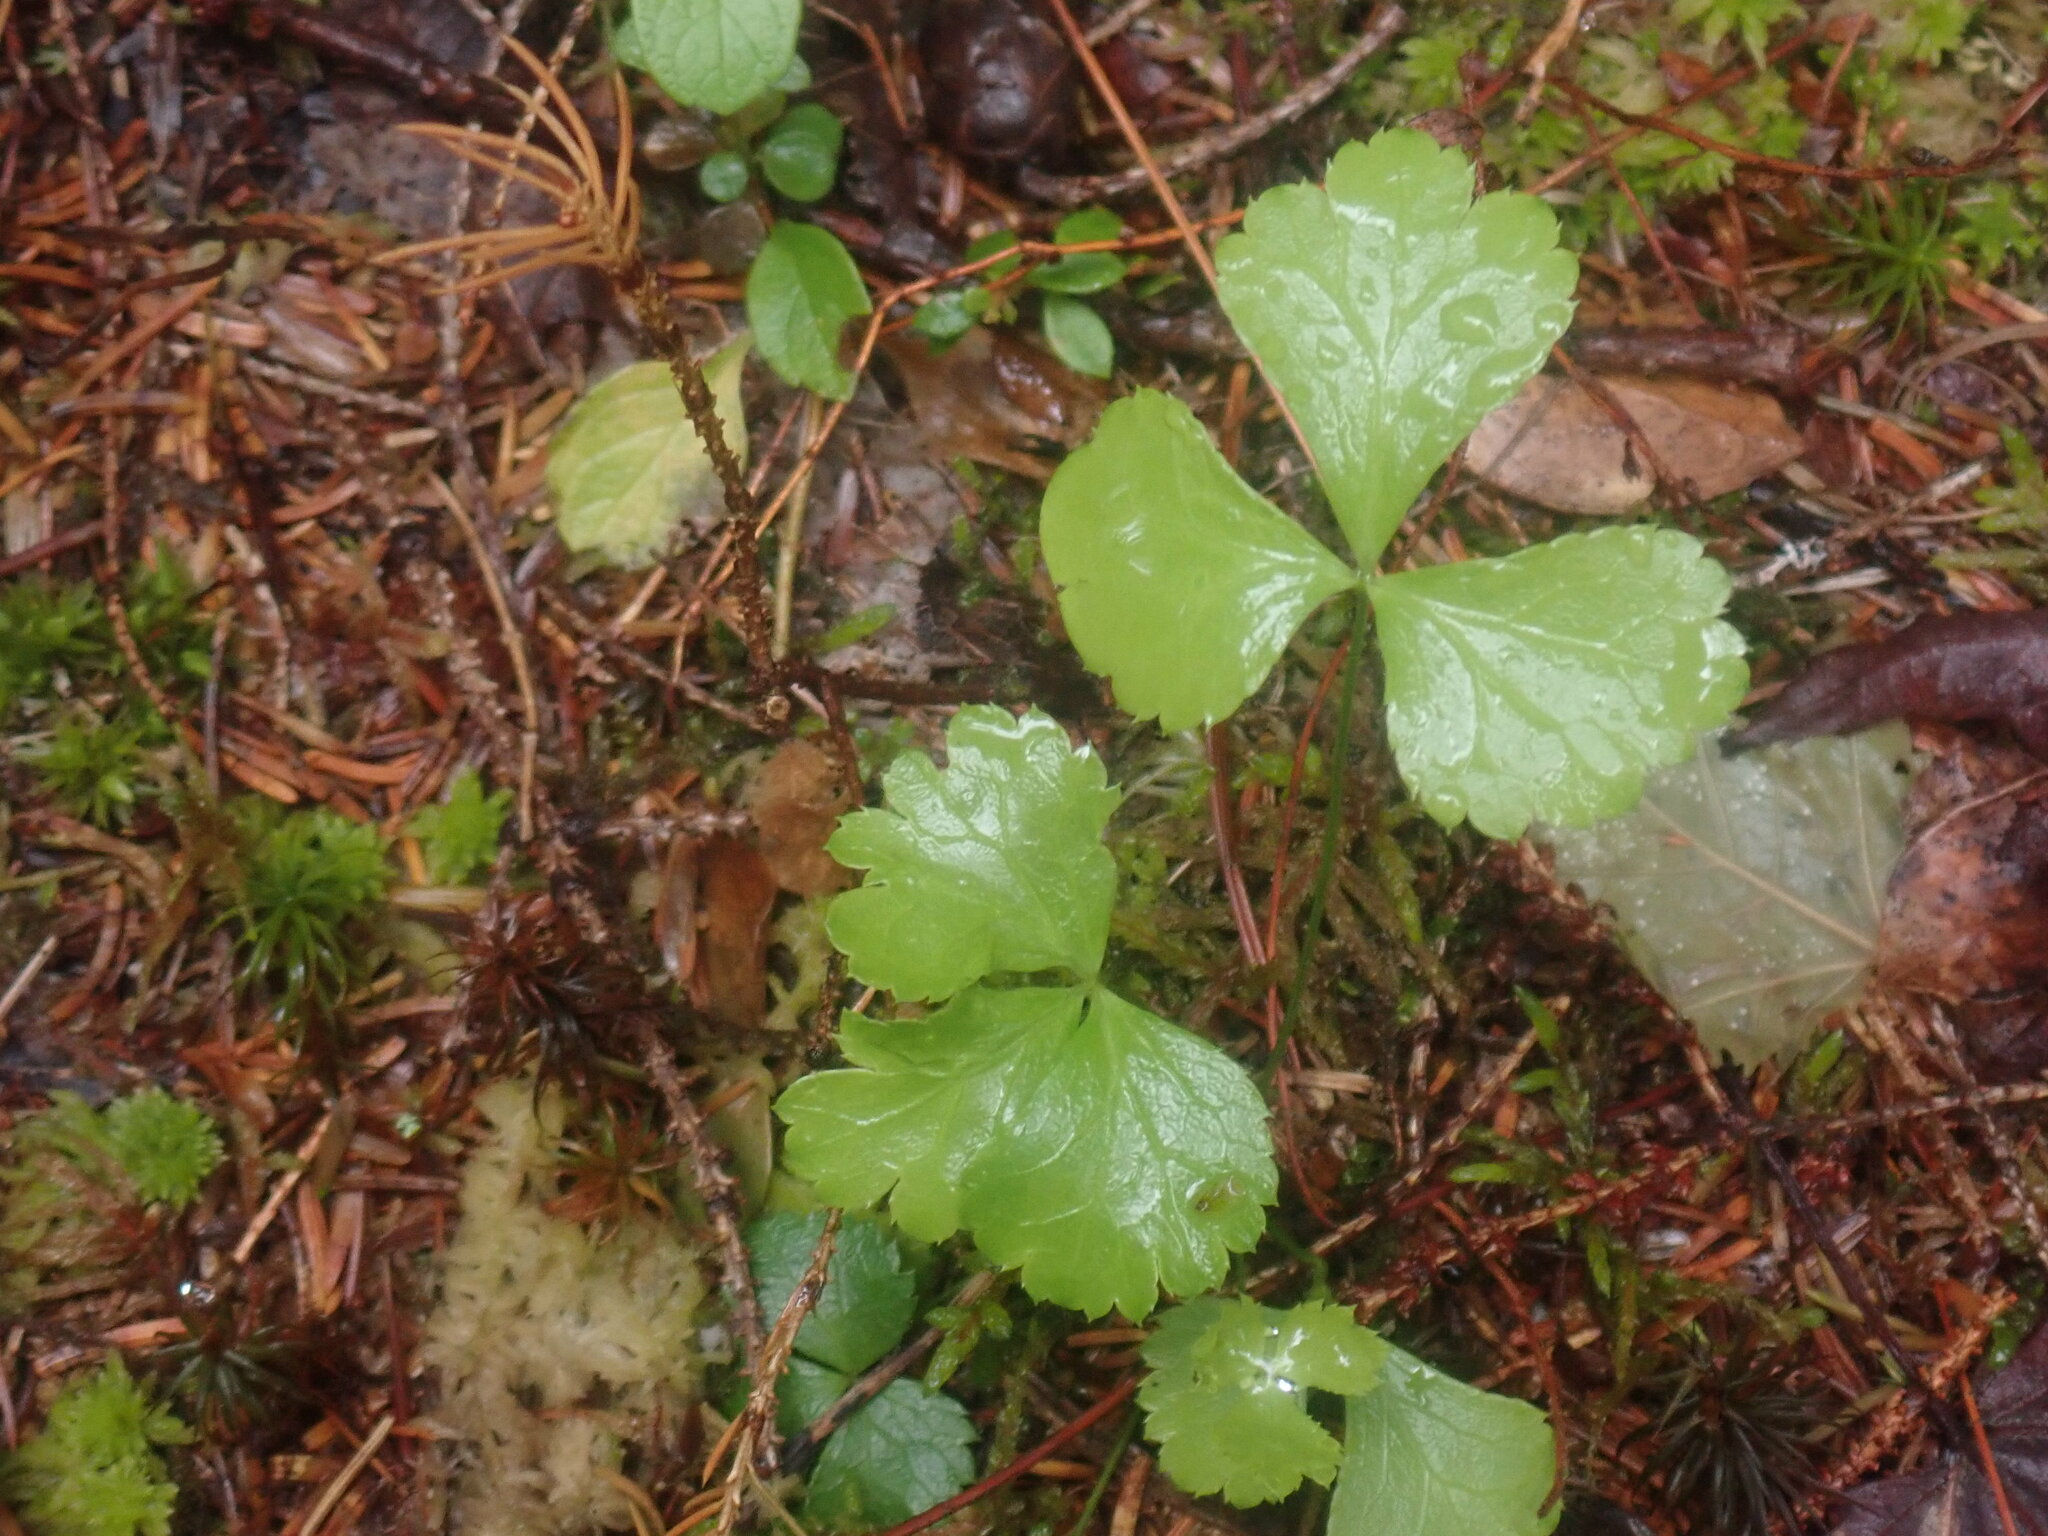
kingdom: Plantae
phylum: Tracheophyta
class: Magnoliopsida
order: Ranunculales
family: Ranunculaceae
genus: Coptis
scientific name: Coptis trifolia
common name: Canker-root
